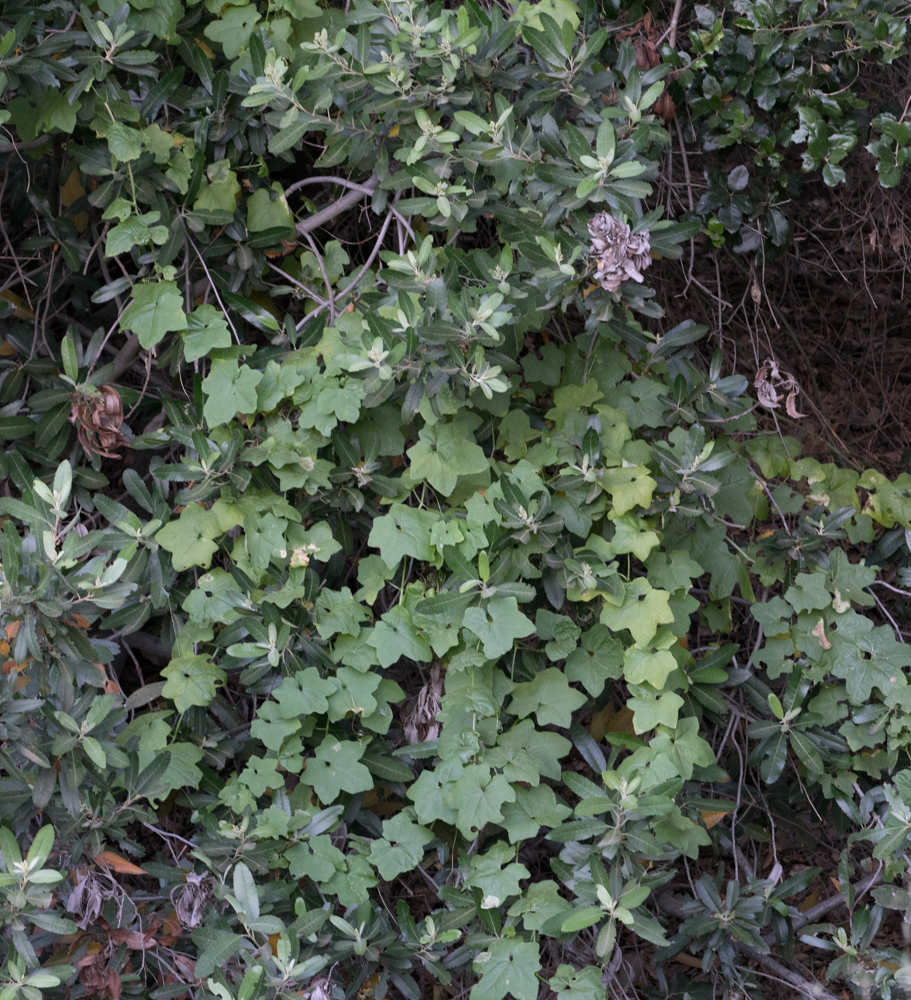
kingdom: Plantae
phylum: Tracheophyta
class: Magnoliopsida
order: Cucurbitales
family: Cucurbitaceae
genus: Marah
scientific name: Marah macrocarpa
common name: Cucamonga manroot
